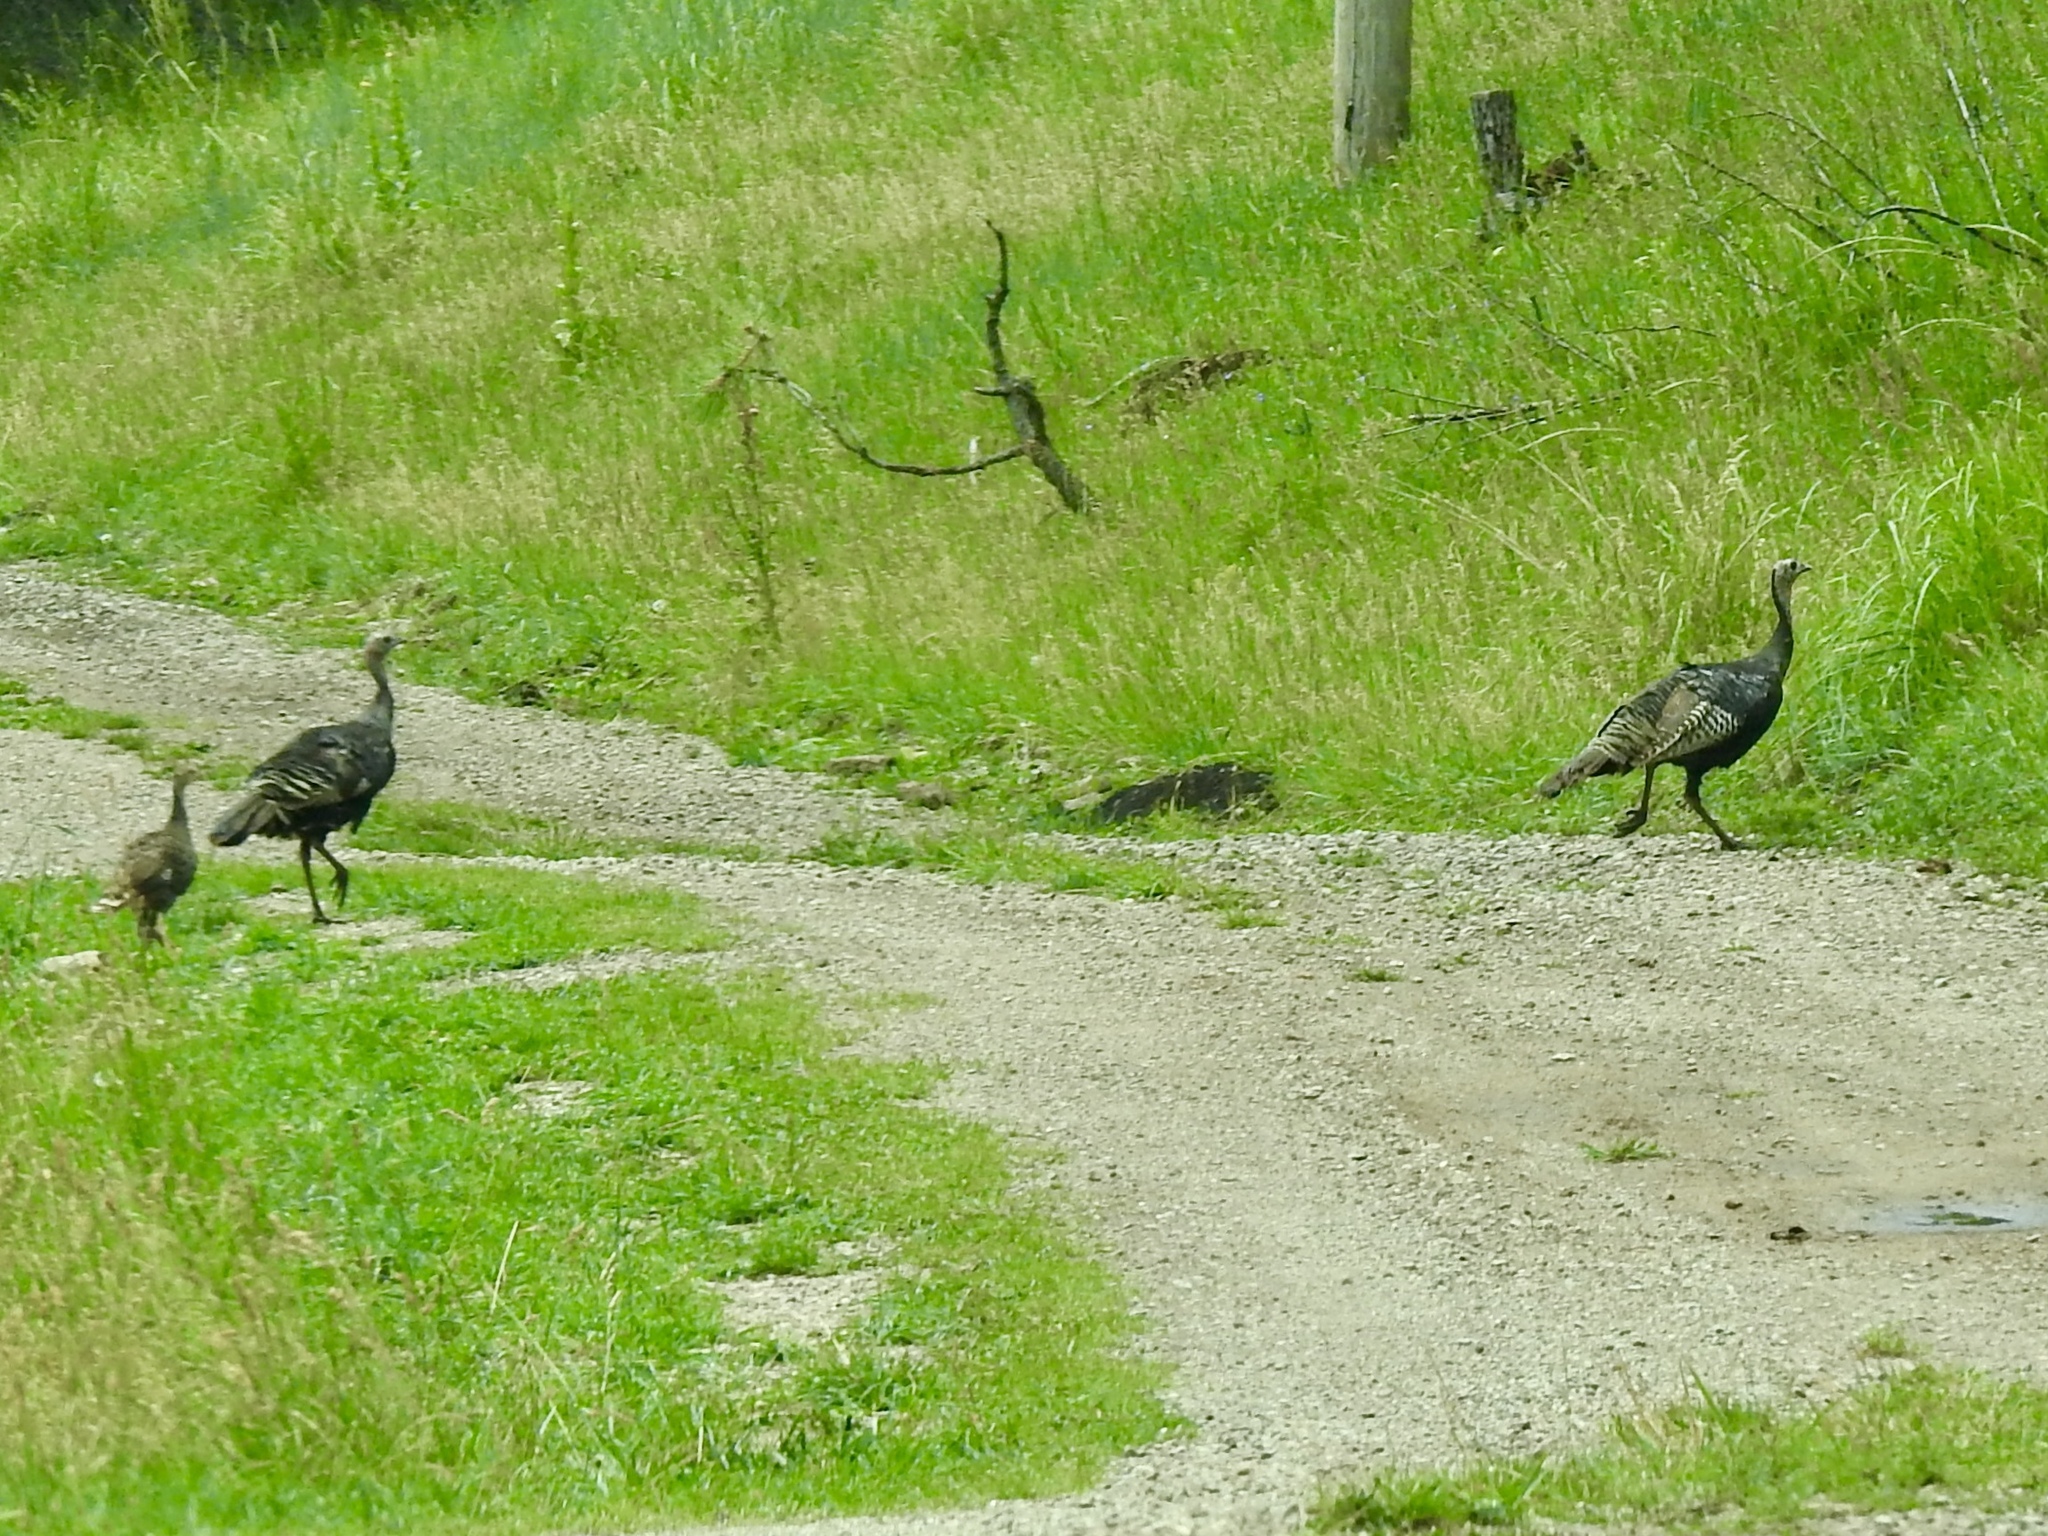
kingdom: Animalia
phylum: Chordata
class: Aves
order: Galliformes
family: Phasianidae
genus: Meleagris
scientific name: Meleagris gallopavo
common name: Wild turkey
